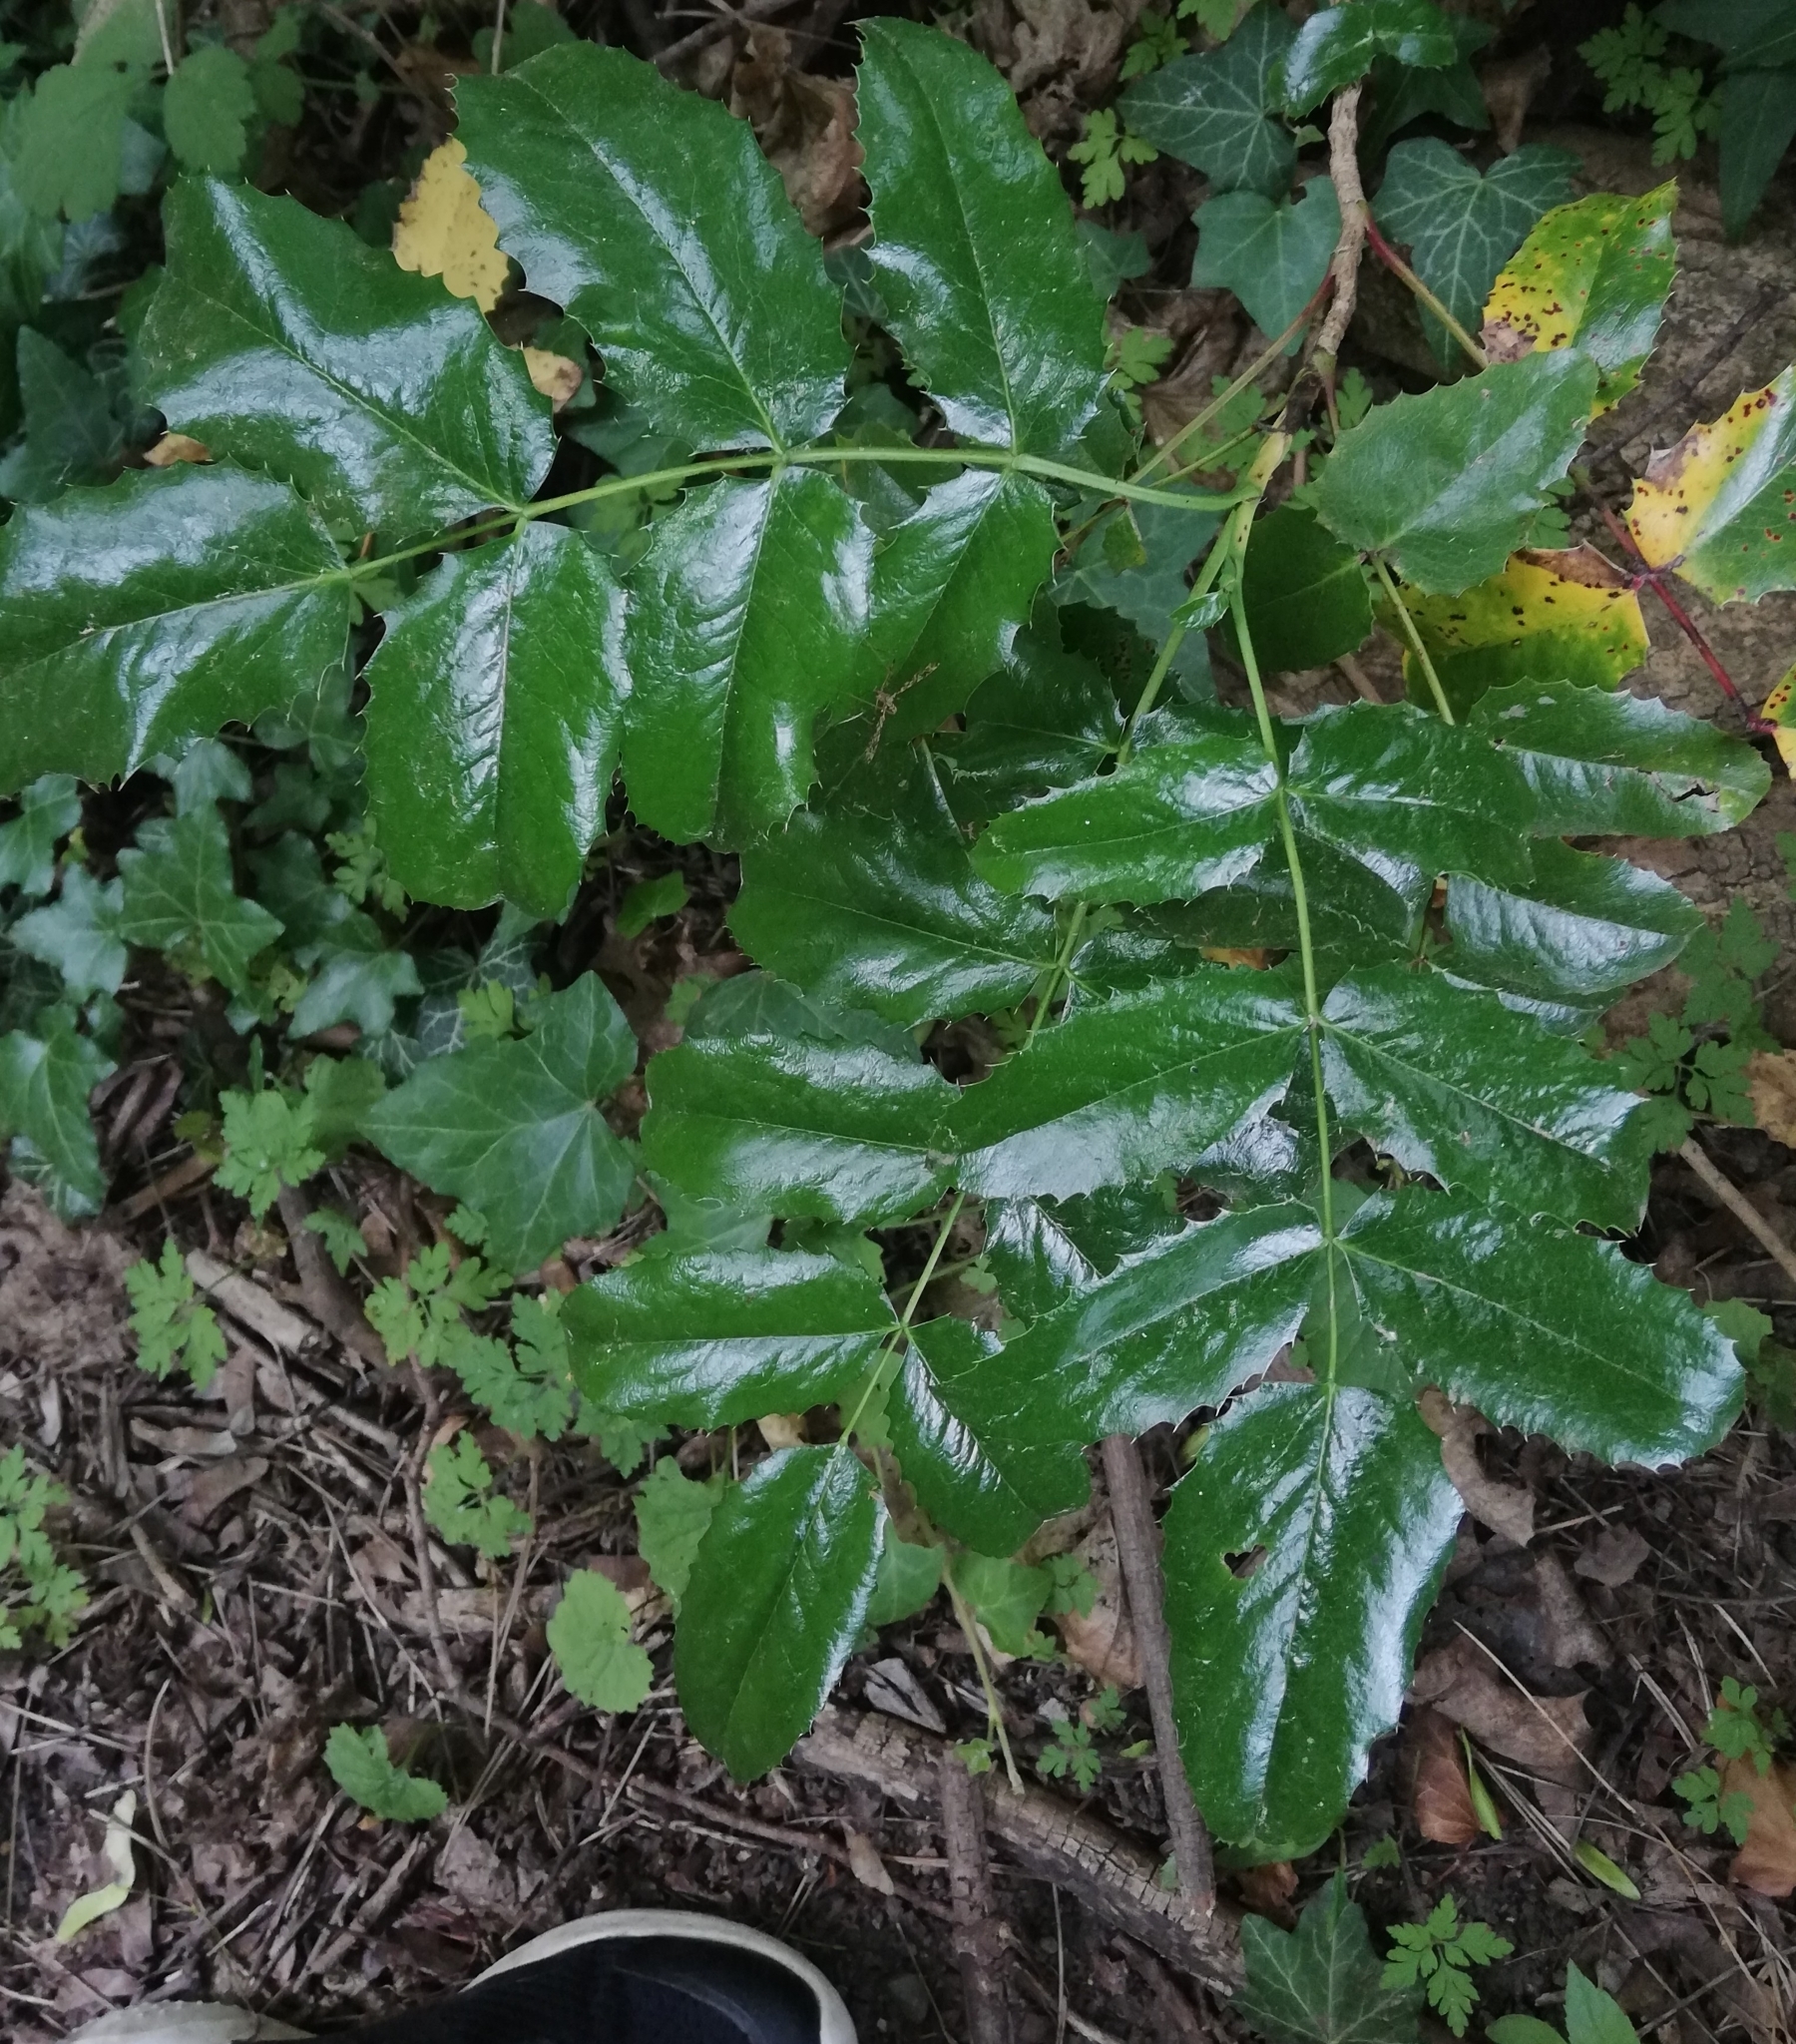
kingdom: Plantae
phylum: Tracheophyta
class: Magnoliopsida
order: Ranunculales
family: Berberidaceae
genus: Mahonia
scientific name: Mahonia aquifolium
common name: Oregon-grape
